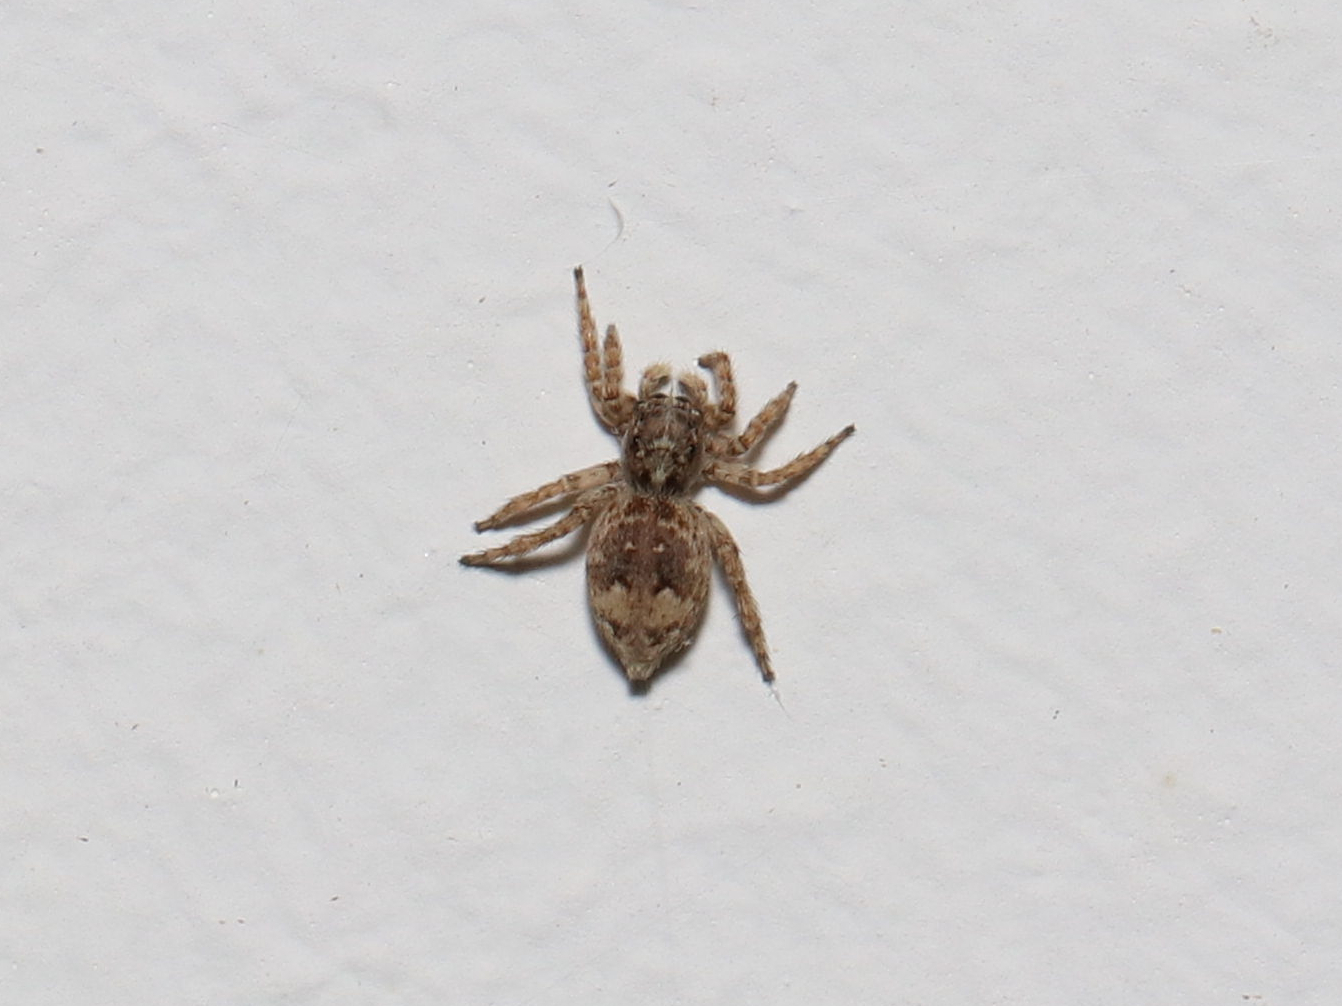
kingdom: Animalia
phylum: Arthropoda
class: Arachnida
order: Araneae
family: Salticidae
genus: Attulus
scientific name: Attulus fasciger
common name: Asiatic wall jumping spider
